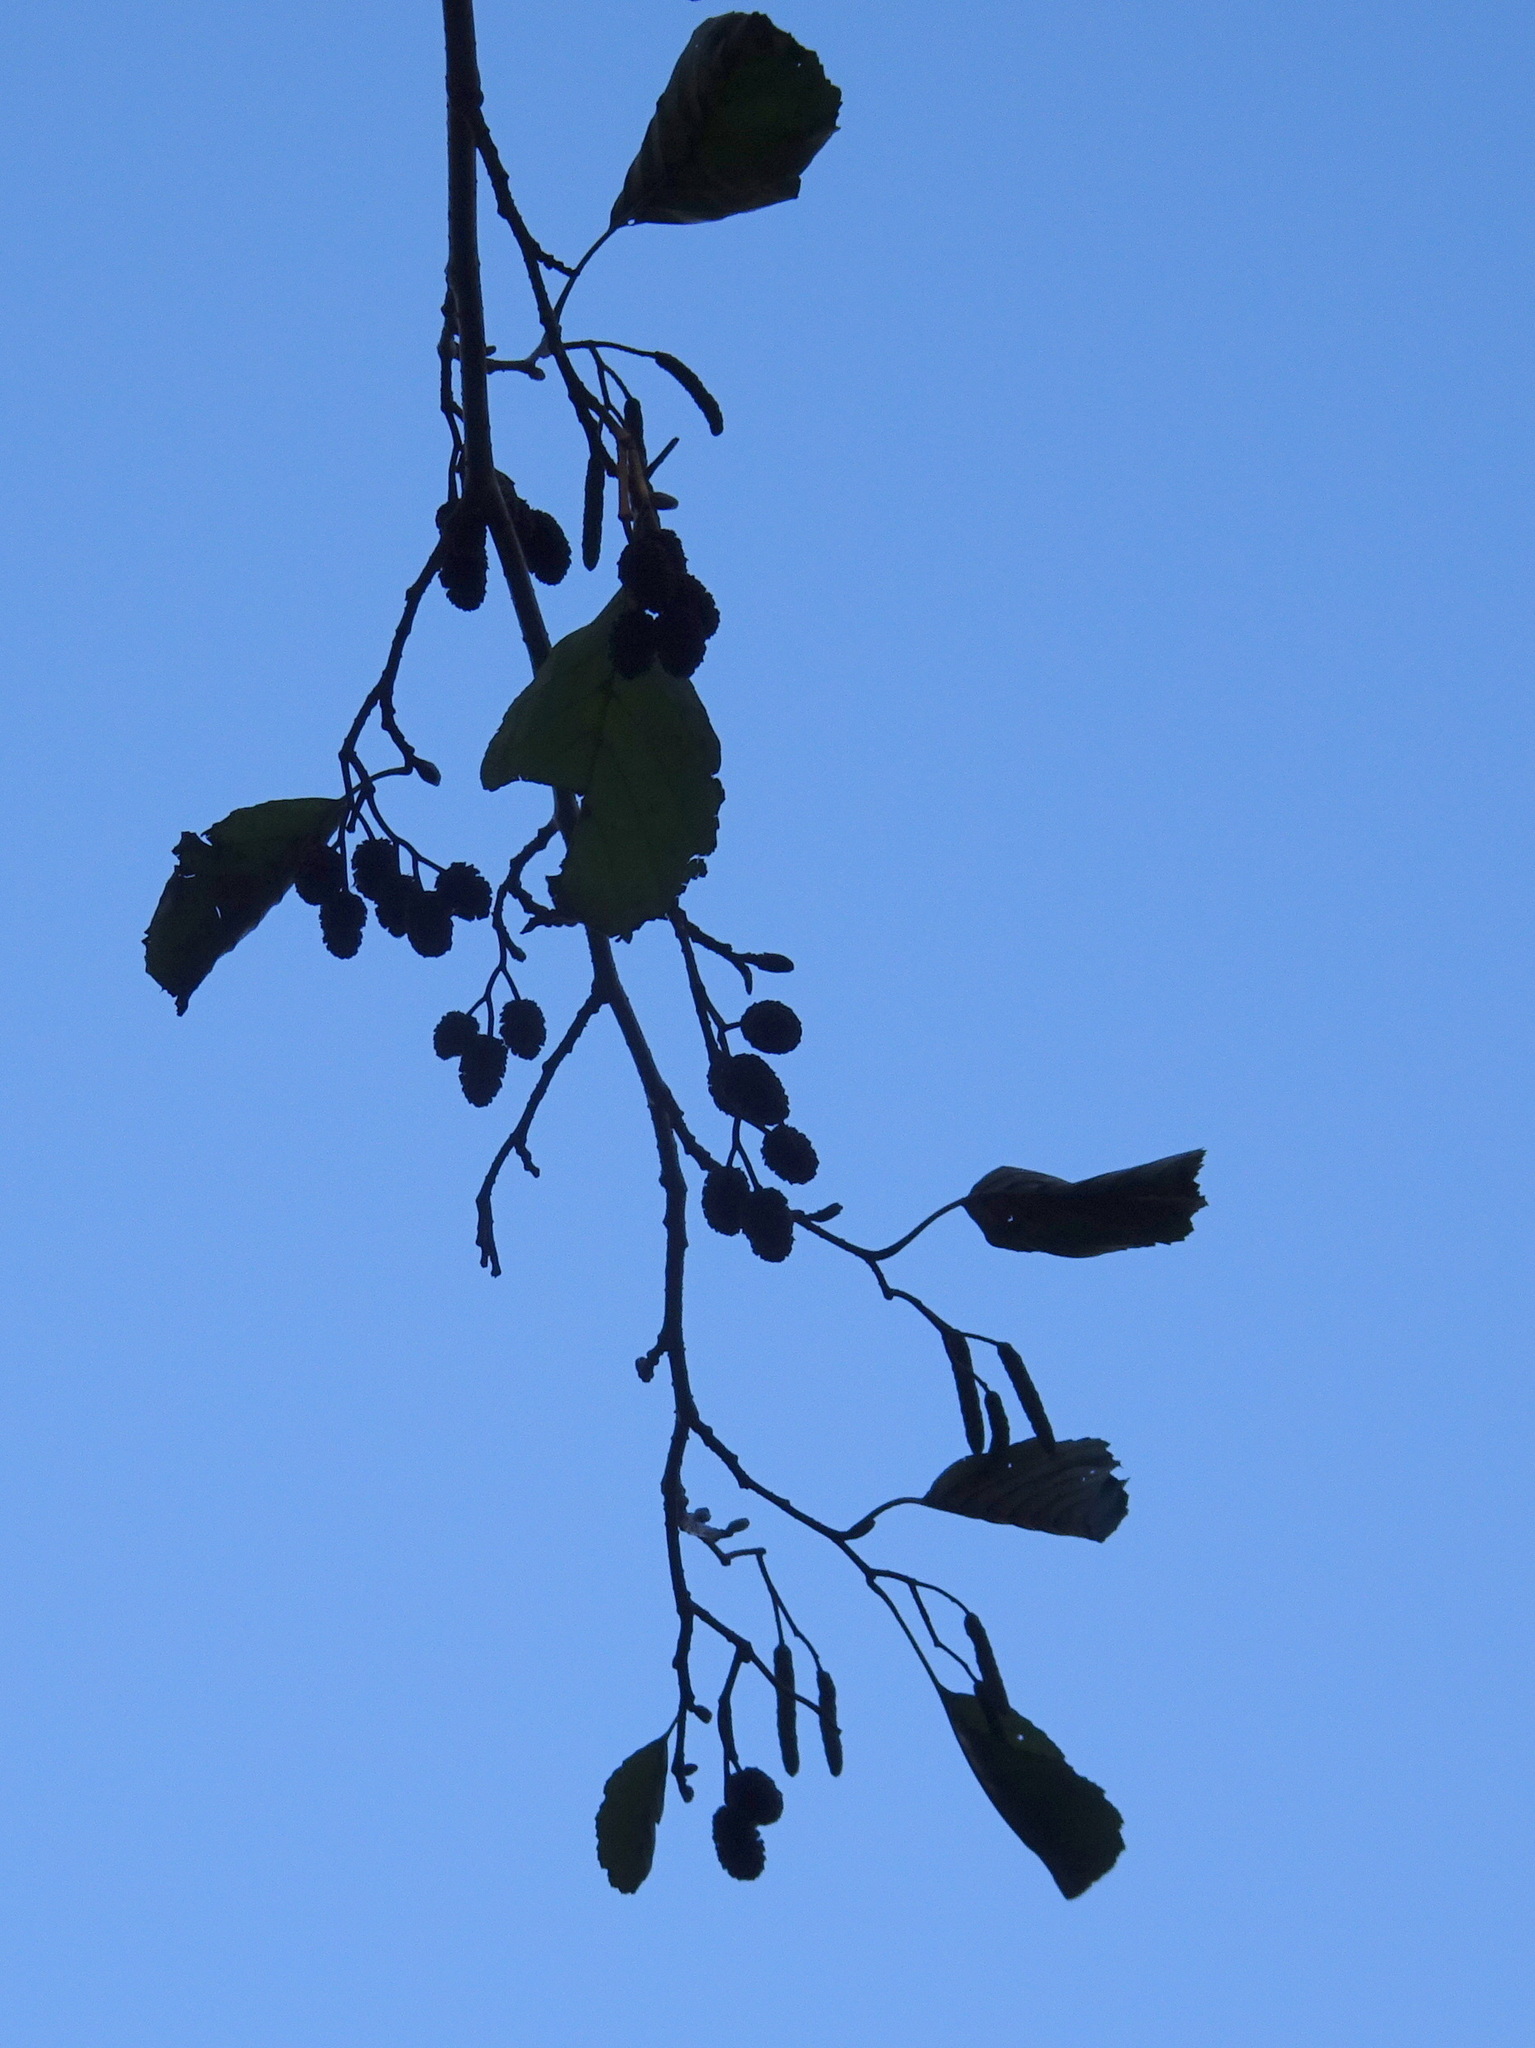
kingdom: Plantae
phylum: Tracheophyta
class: Magnoliopsida
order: Fagales
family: Betulaceae
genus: Alnus
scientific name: Alnus glutinosa
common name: Black alder
